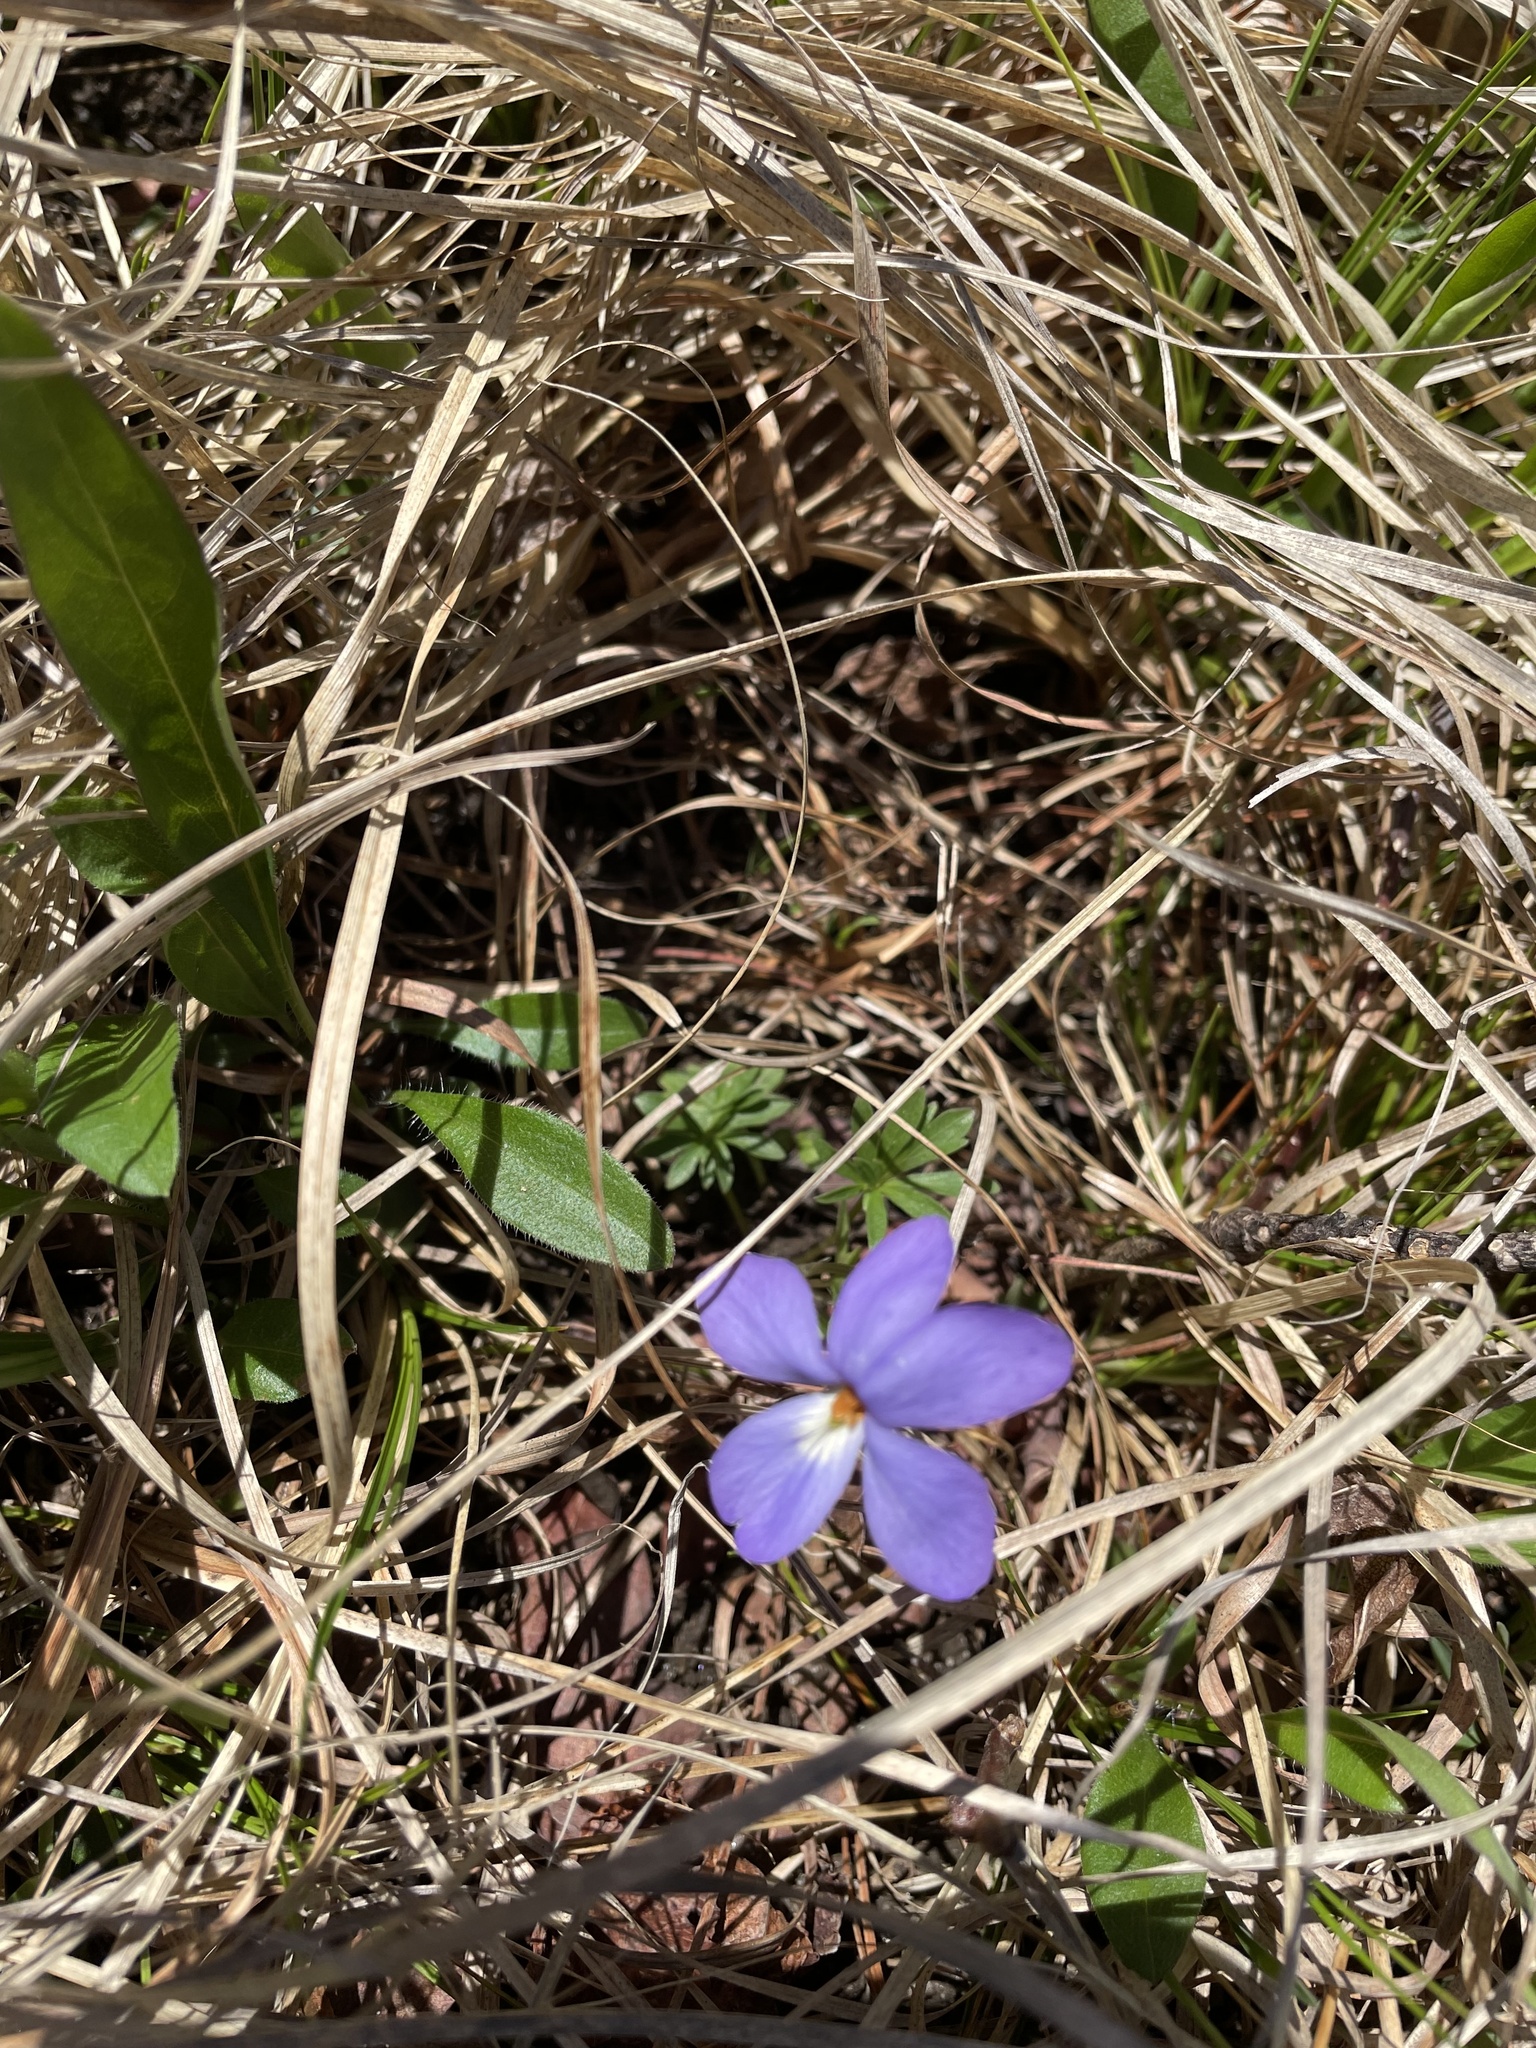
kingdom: Plantae
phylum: Tracheophyta
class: Magnoliopsida
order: Malpighiales
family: Violaceae
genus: Viola
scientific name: Viola pedata
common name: Pansy violet
